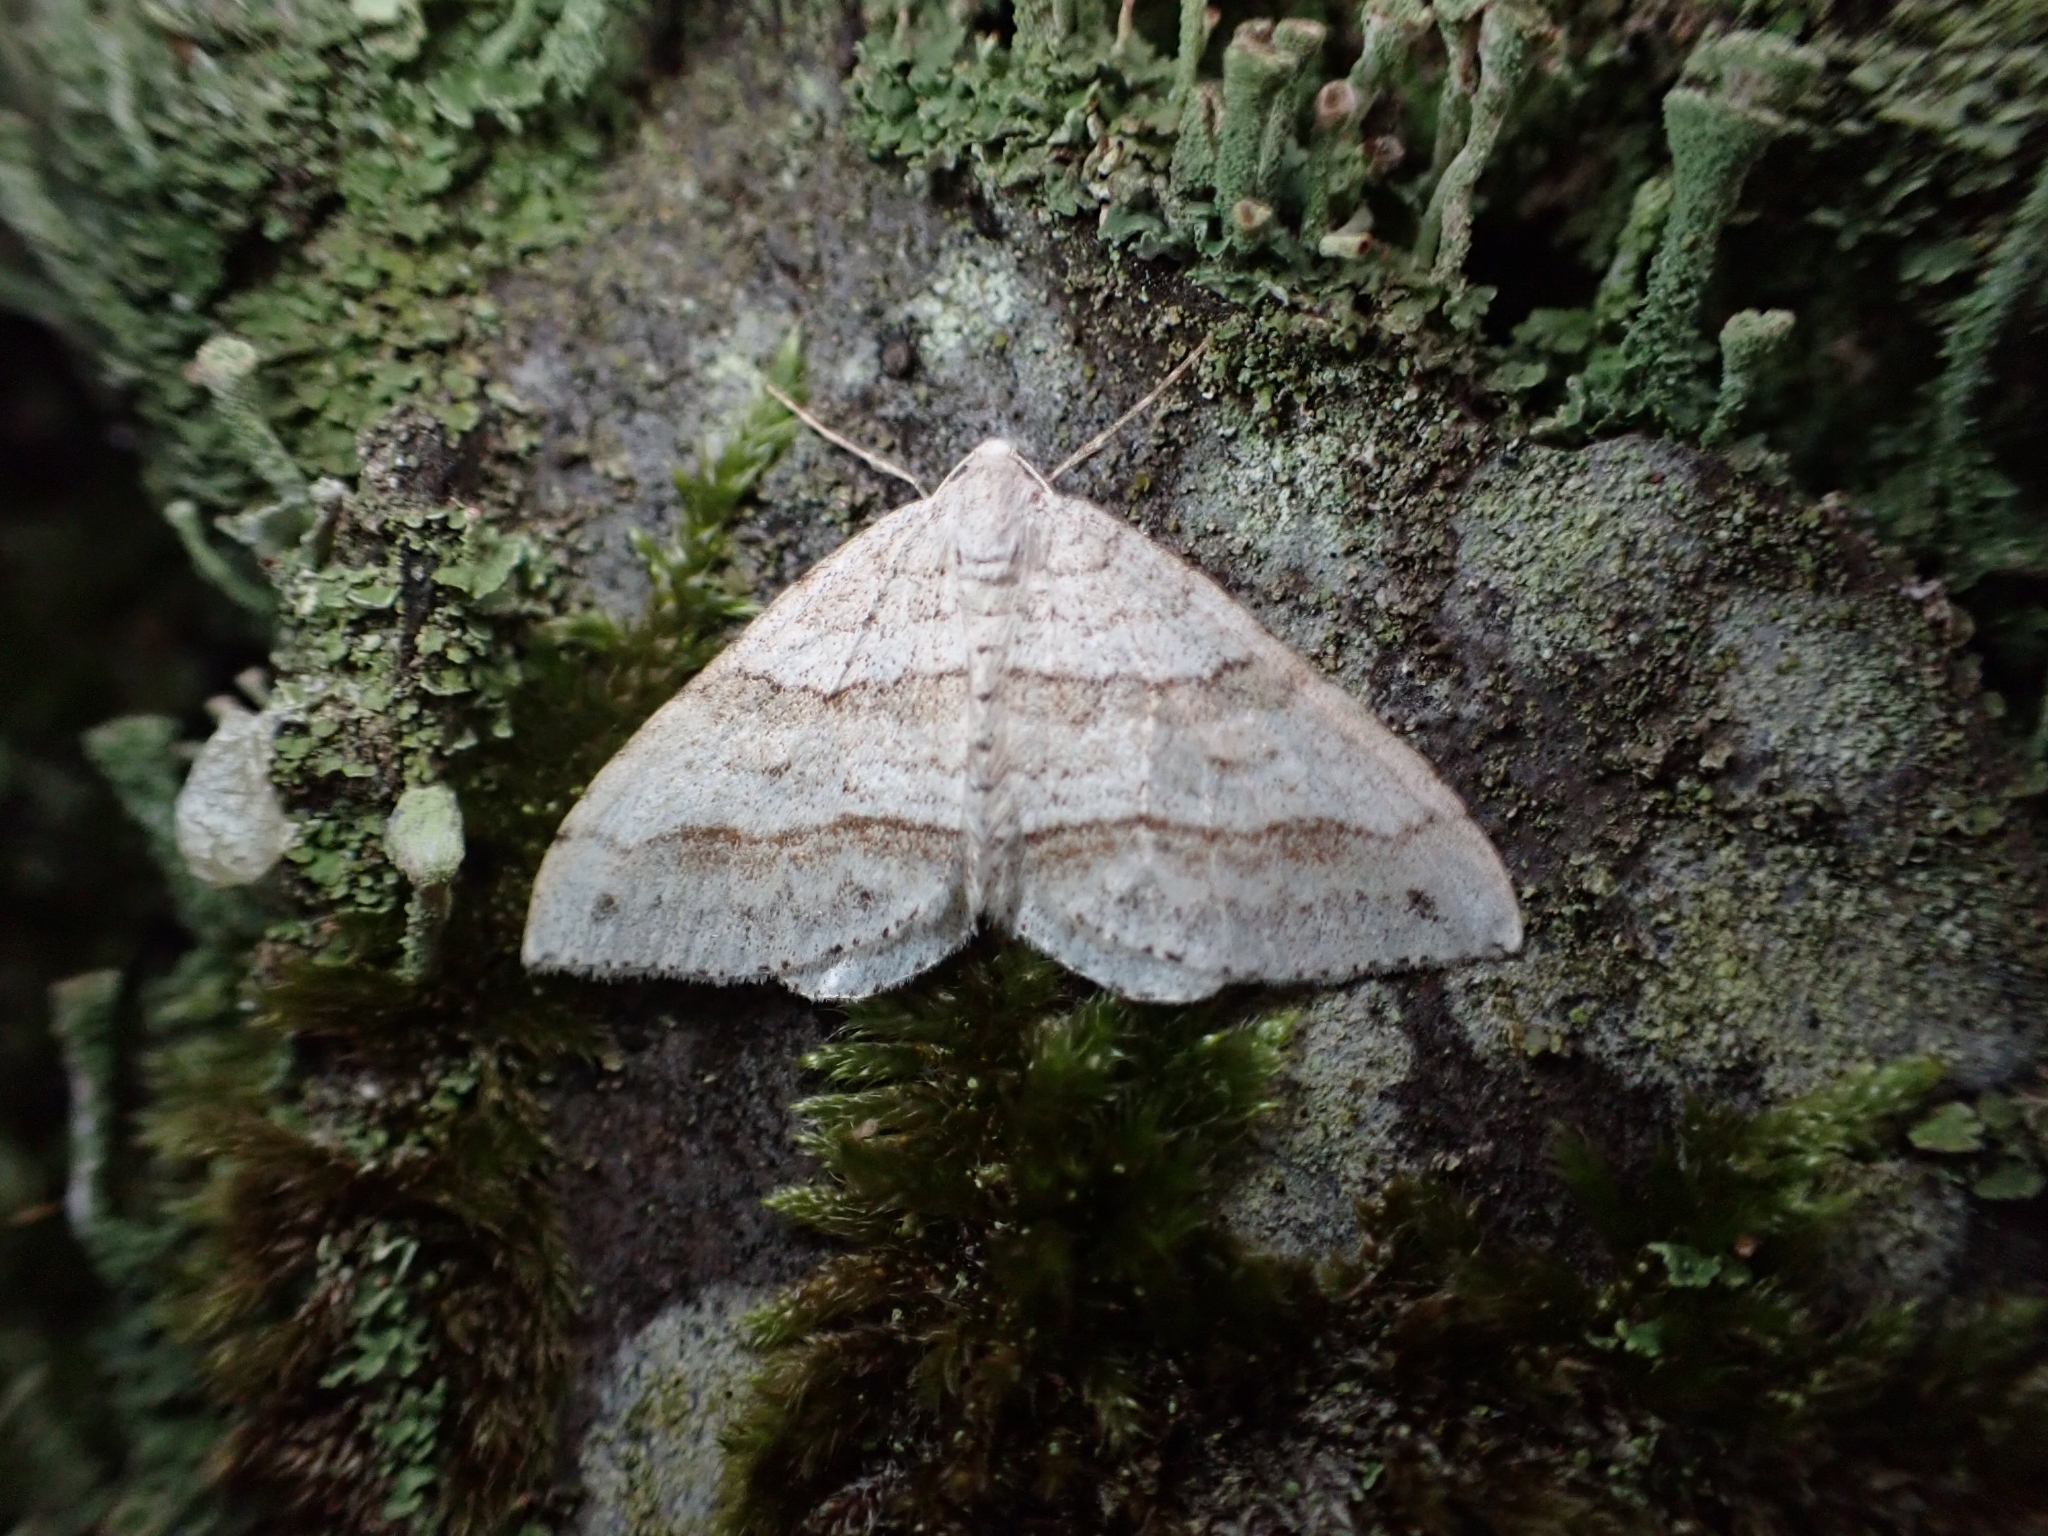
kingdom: Animalia
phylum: Arthropoda
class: Insecta
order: Lepidoptera
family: Geometridae
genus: Perizoma
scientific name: Perizoma parallelolineata
